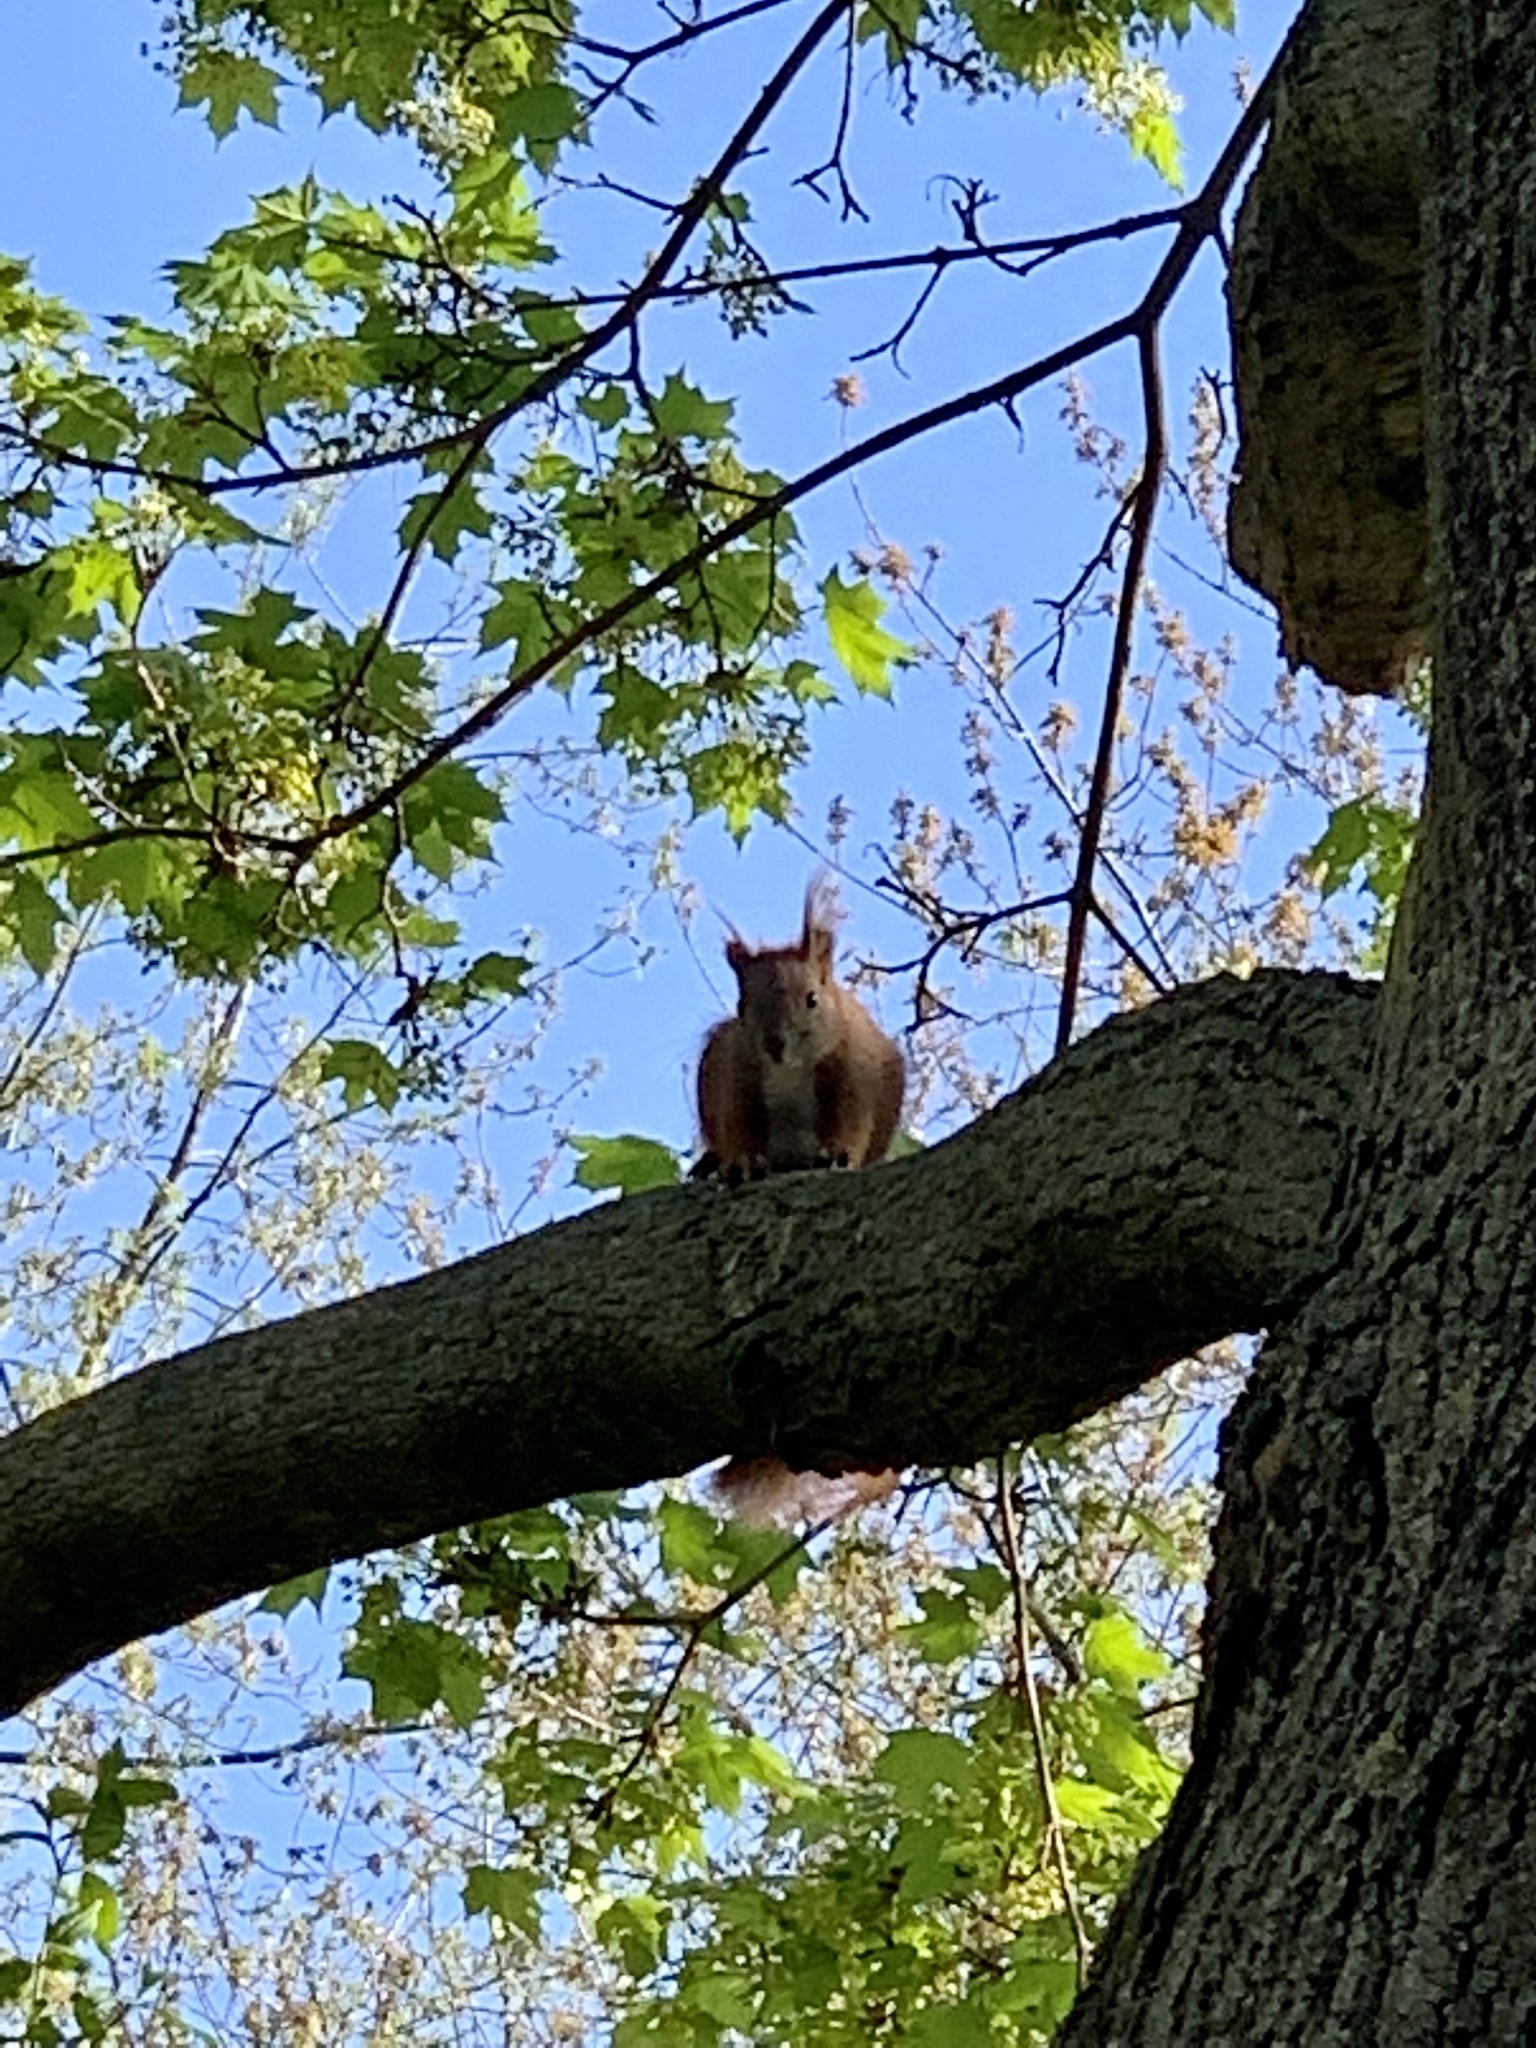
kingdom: Animalia
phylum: Chordata
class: Mammalia
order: Rodentia
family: Sciuridae
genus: Sciurus
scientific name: Sciurus vulgaris
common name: Eurasian red squirrel
